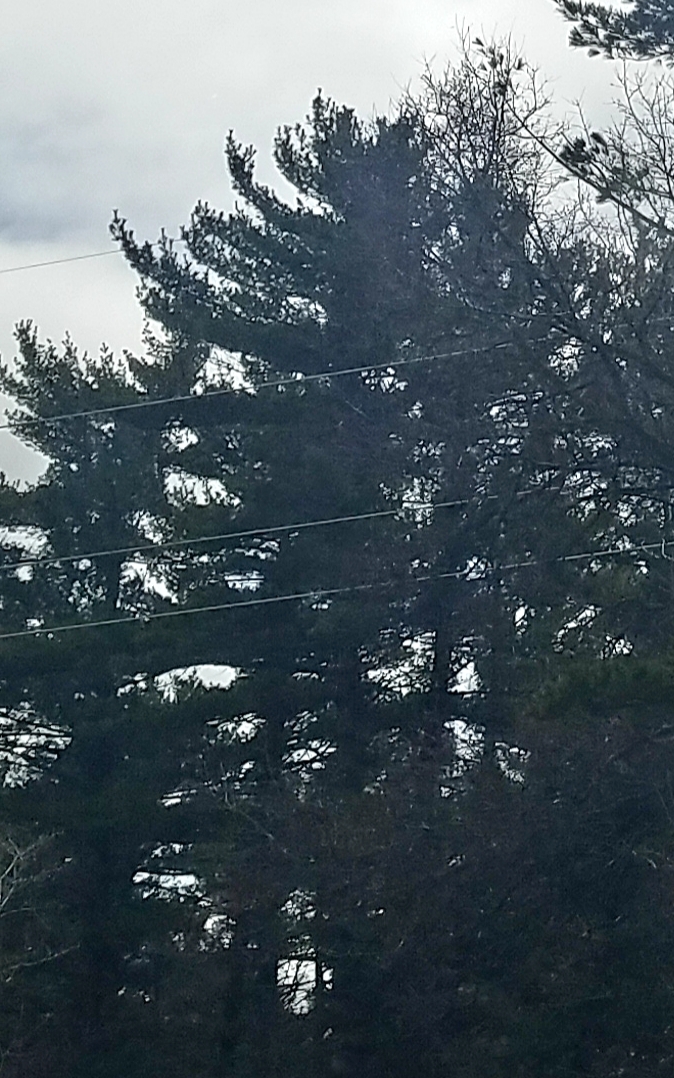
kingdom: Plantae
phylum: Tracheophyta
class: Pinopsida
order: Pinales
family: Pinaceae
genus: Pinus
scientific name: Pinus strobus
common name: Weymouth pine
